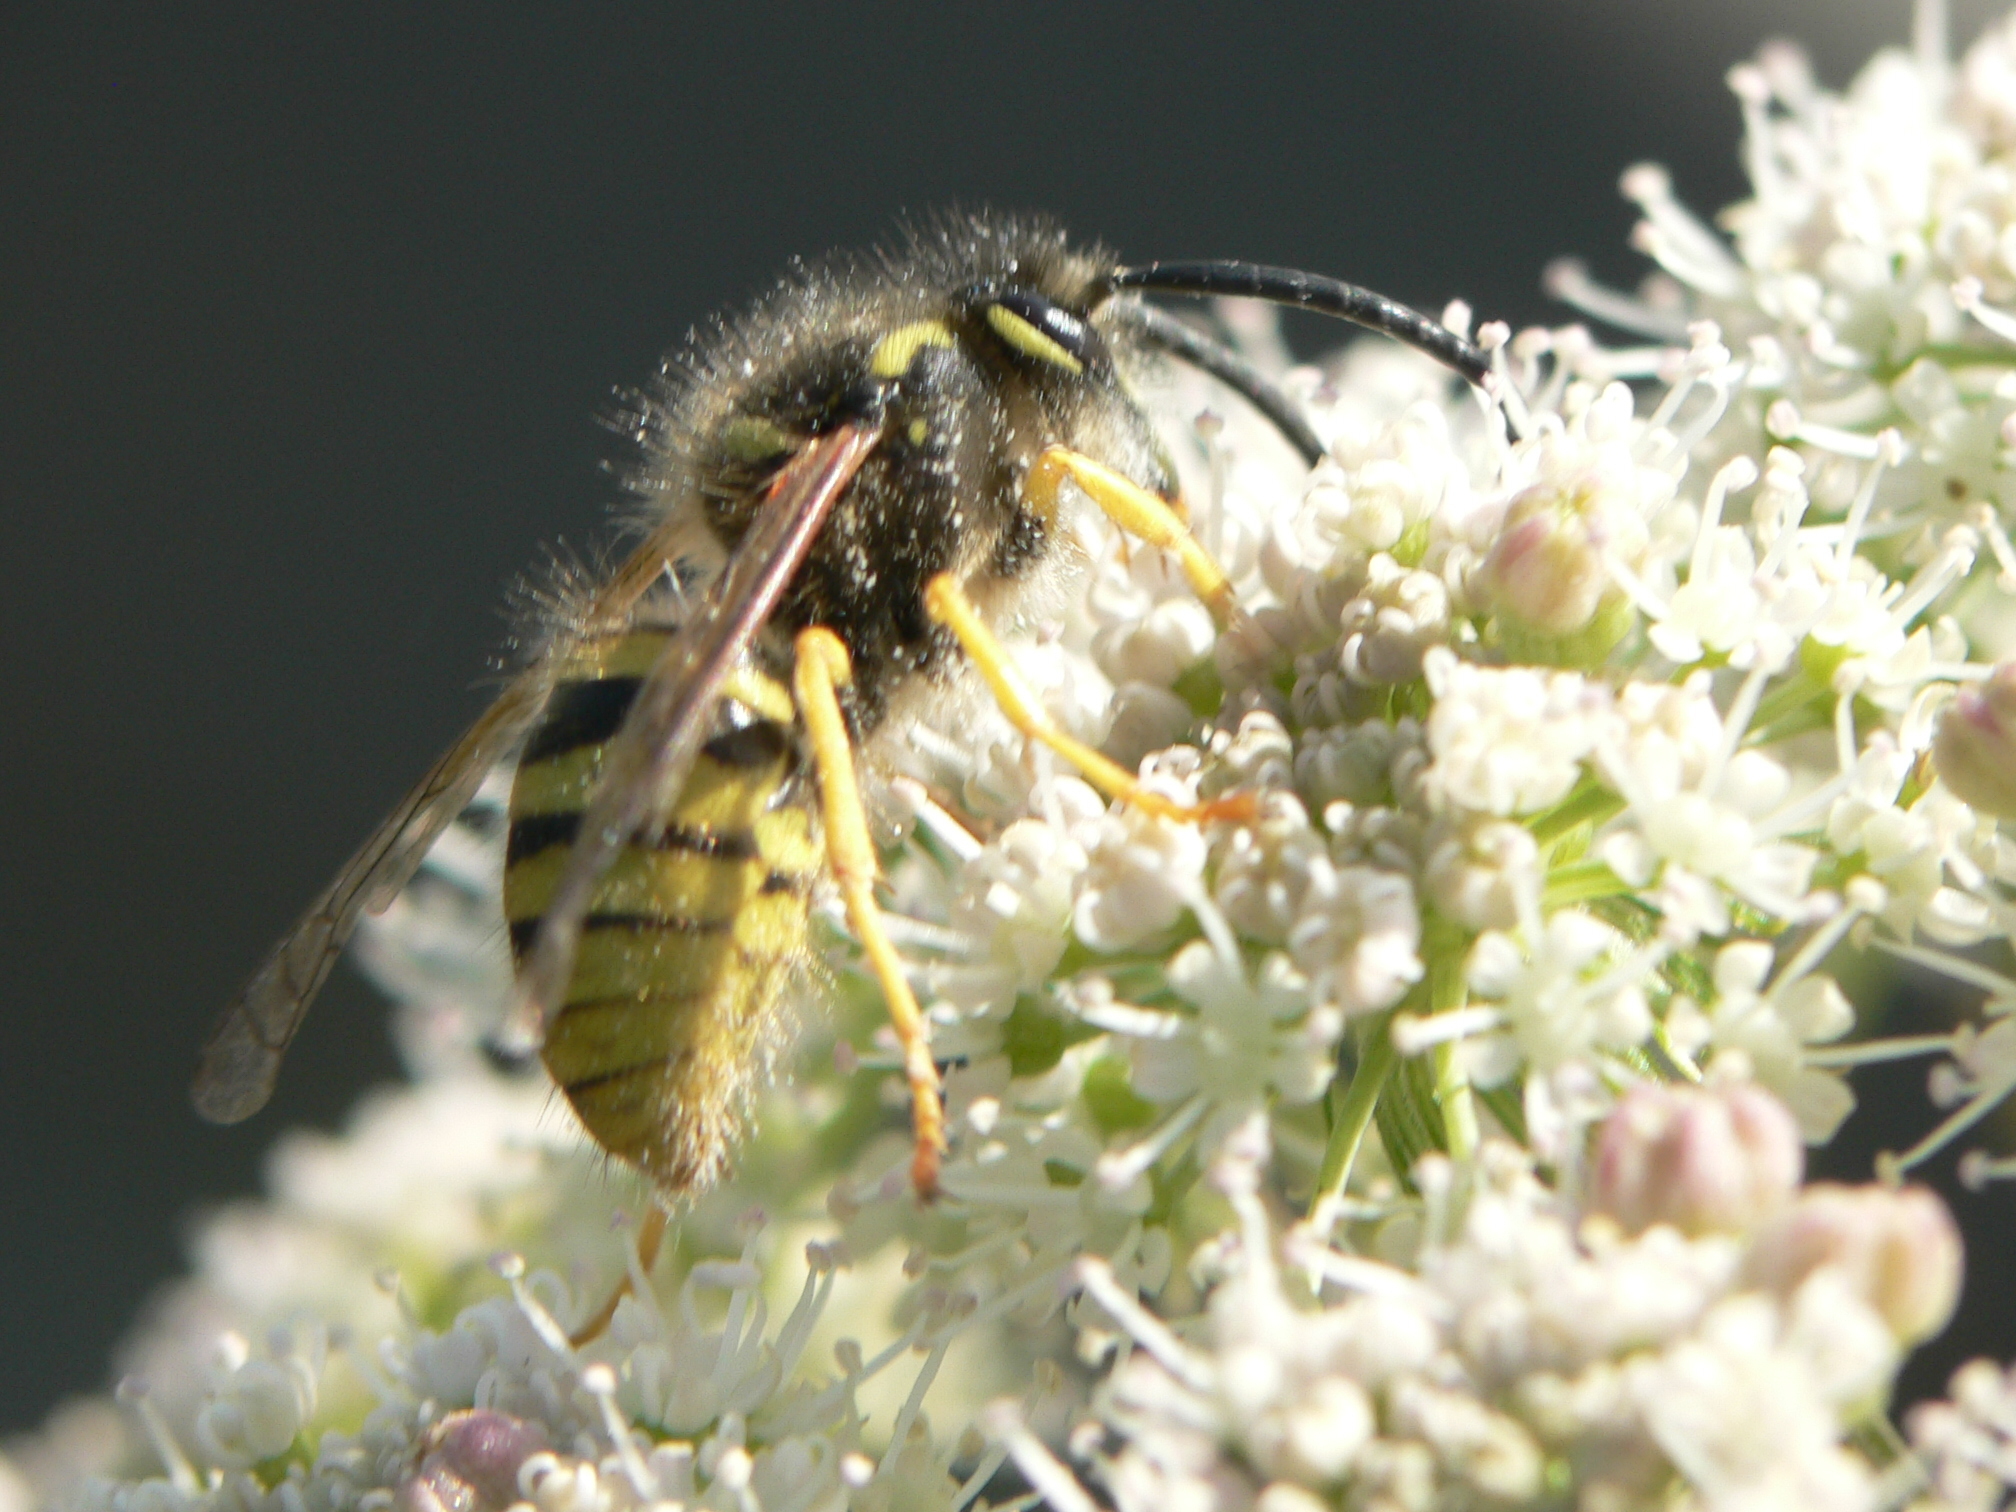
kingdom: Animalia
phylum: Arthropoda
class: Insecta
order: Hymenoptera
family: Vespidae
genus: Dolichovespula
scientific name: Dolichovespula sylvestris
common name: Tree wasp
